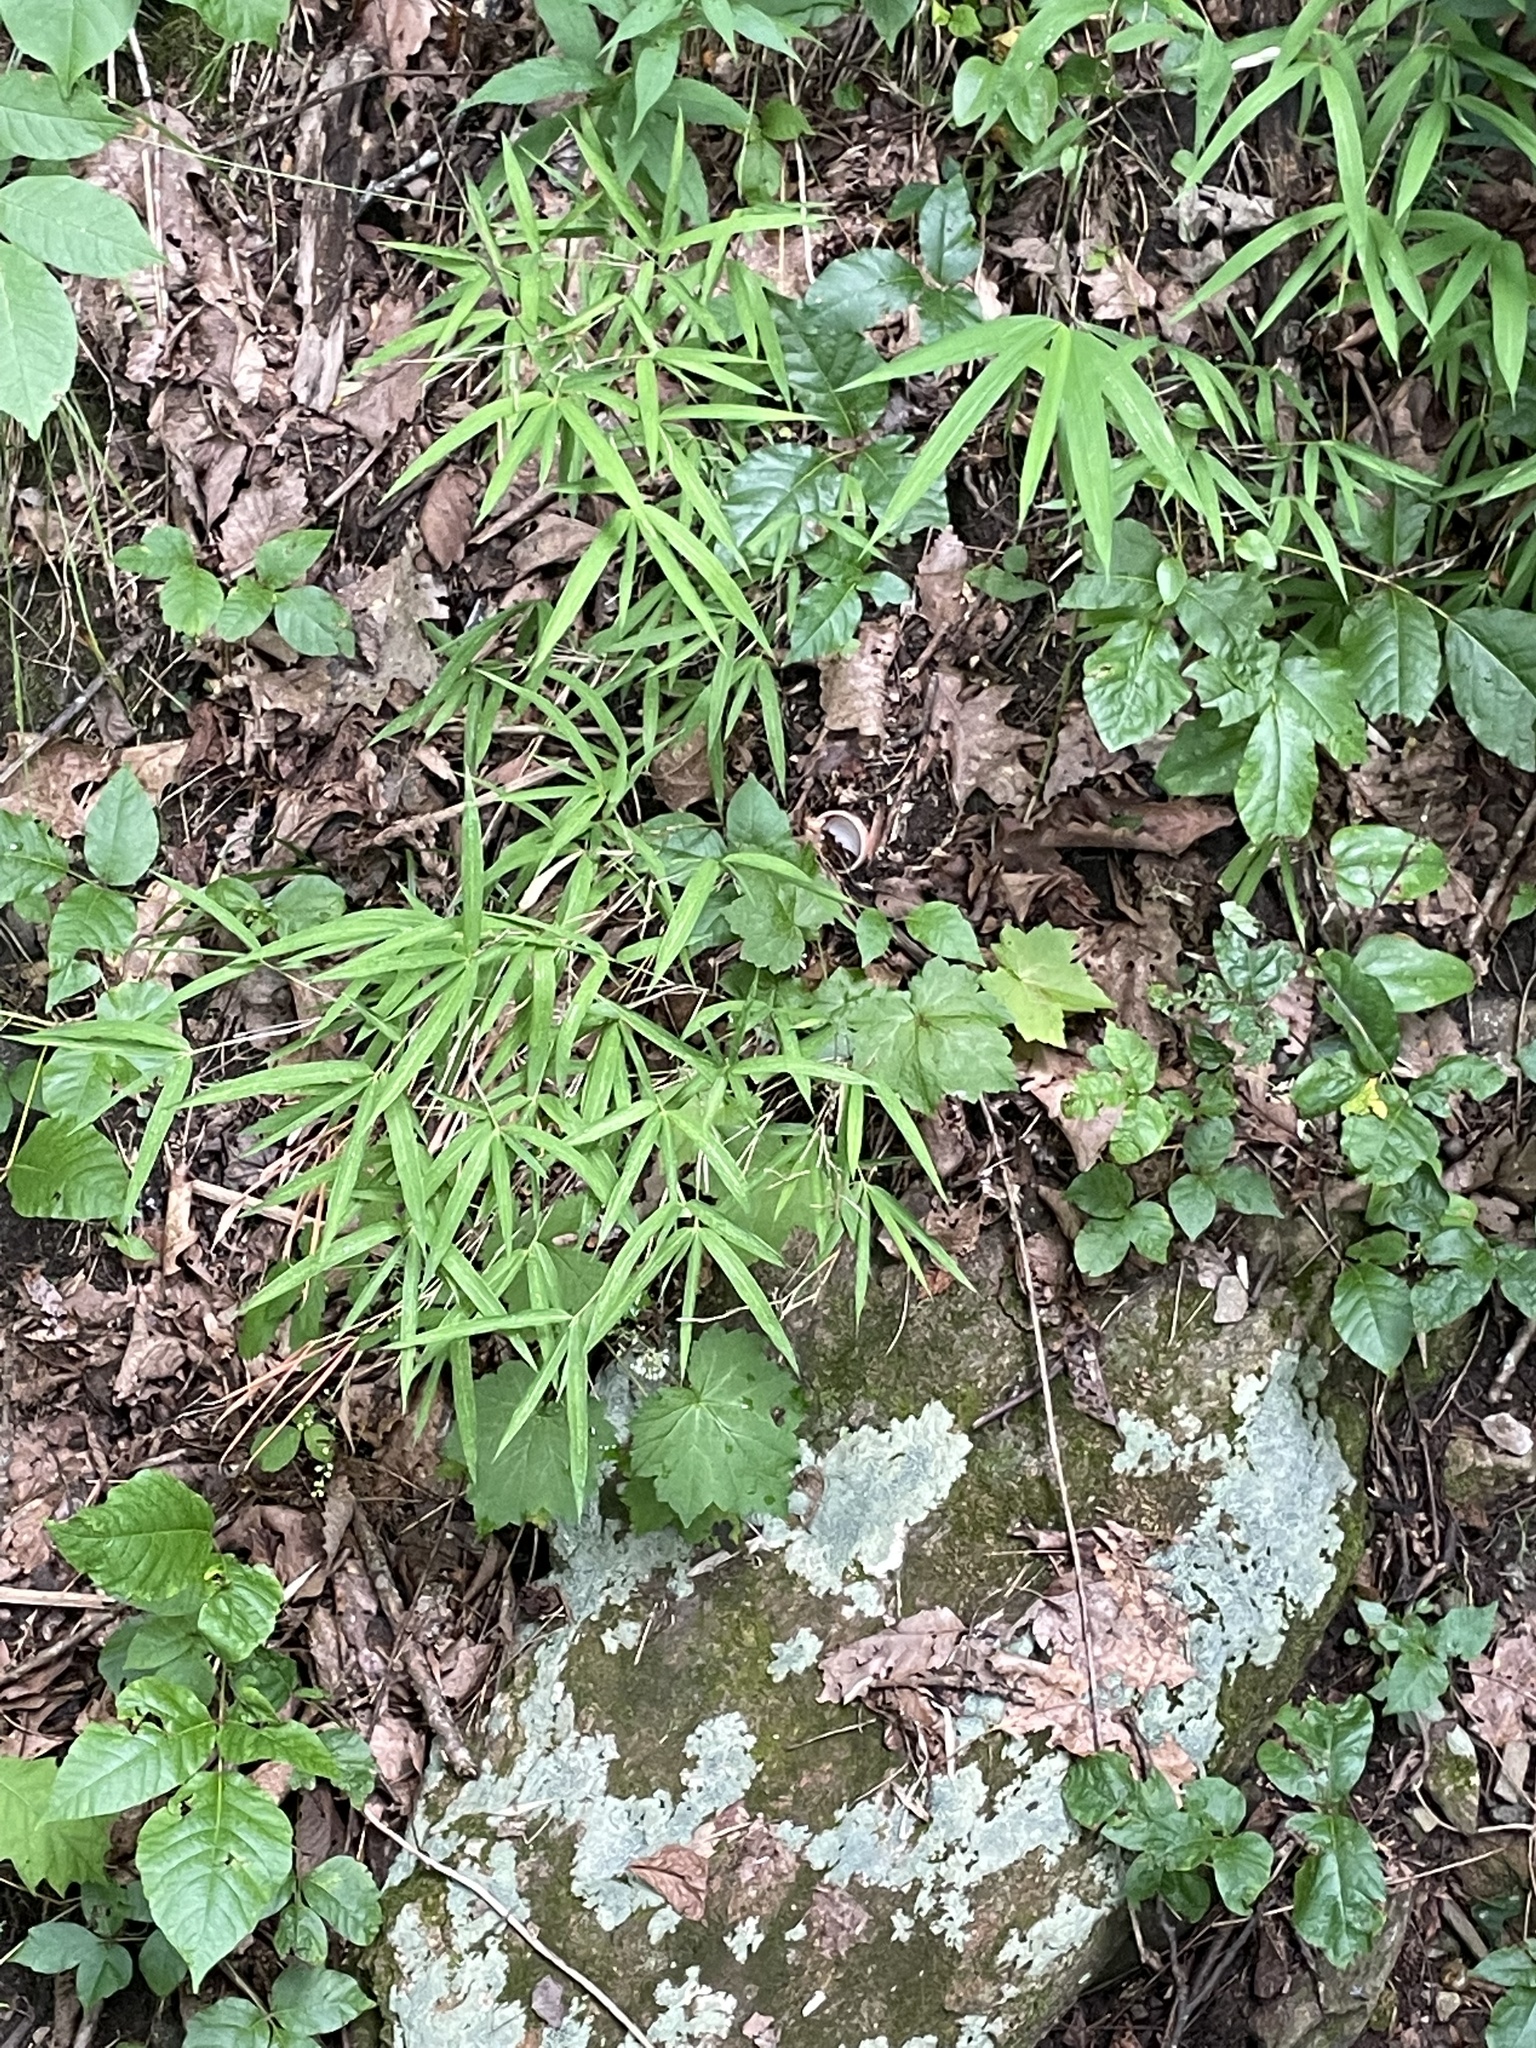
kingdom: Plantae
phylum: Tracheophyta
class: Liliopsida
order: Poales
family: Poaceae
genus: Arundinaria
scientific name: Arundinaria appalachiana
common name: Hill cane
